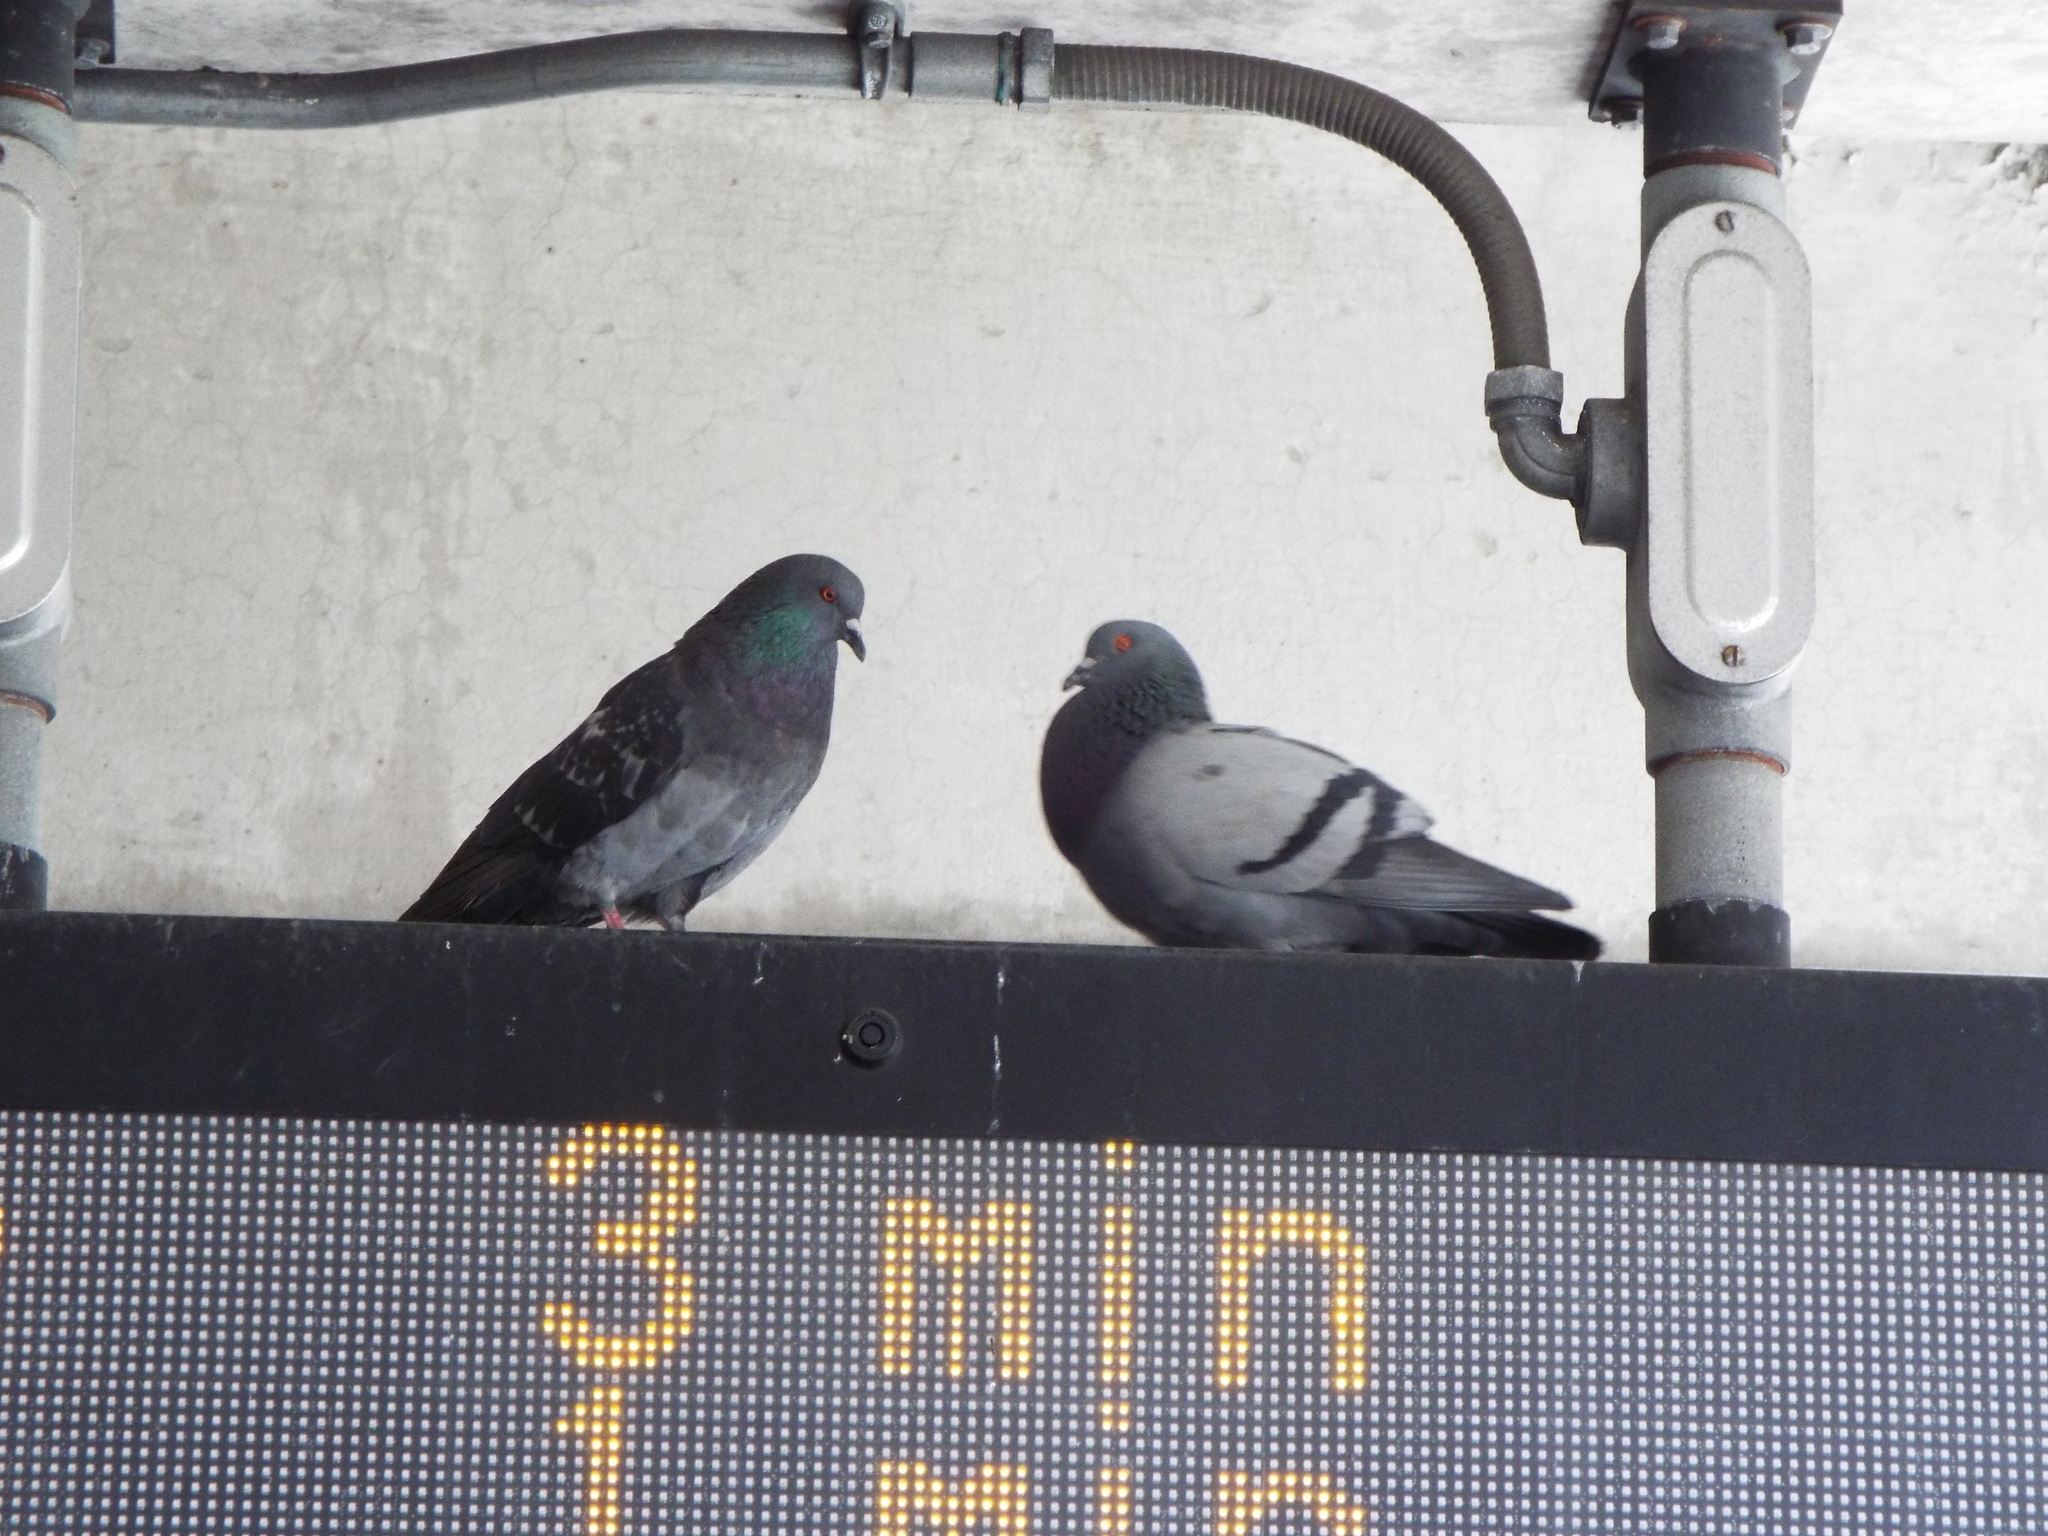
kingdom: Animalia
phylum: Chordata
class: Aves
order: Columbiformes
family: Columbidae
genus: Columba
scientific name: Columba livia
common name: Rock pigeon
